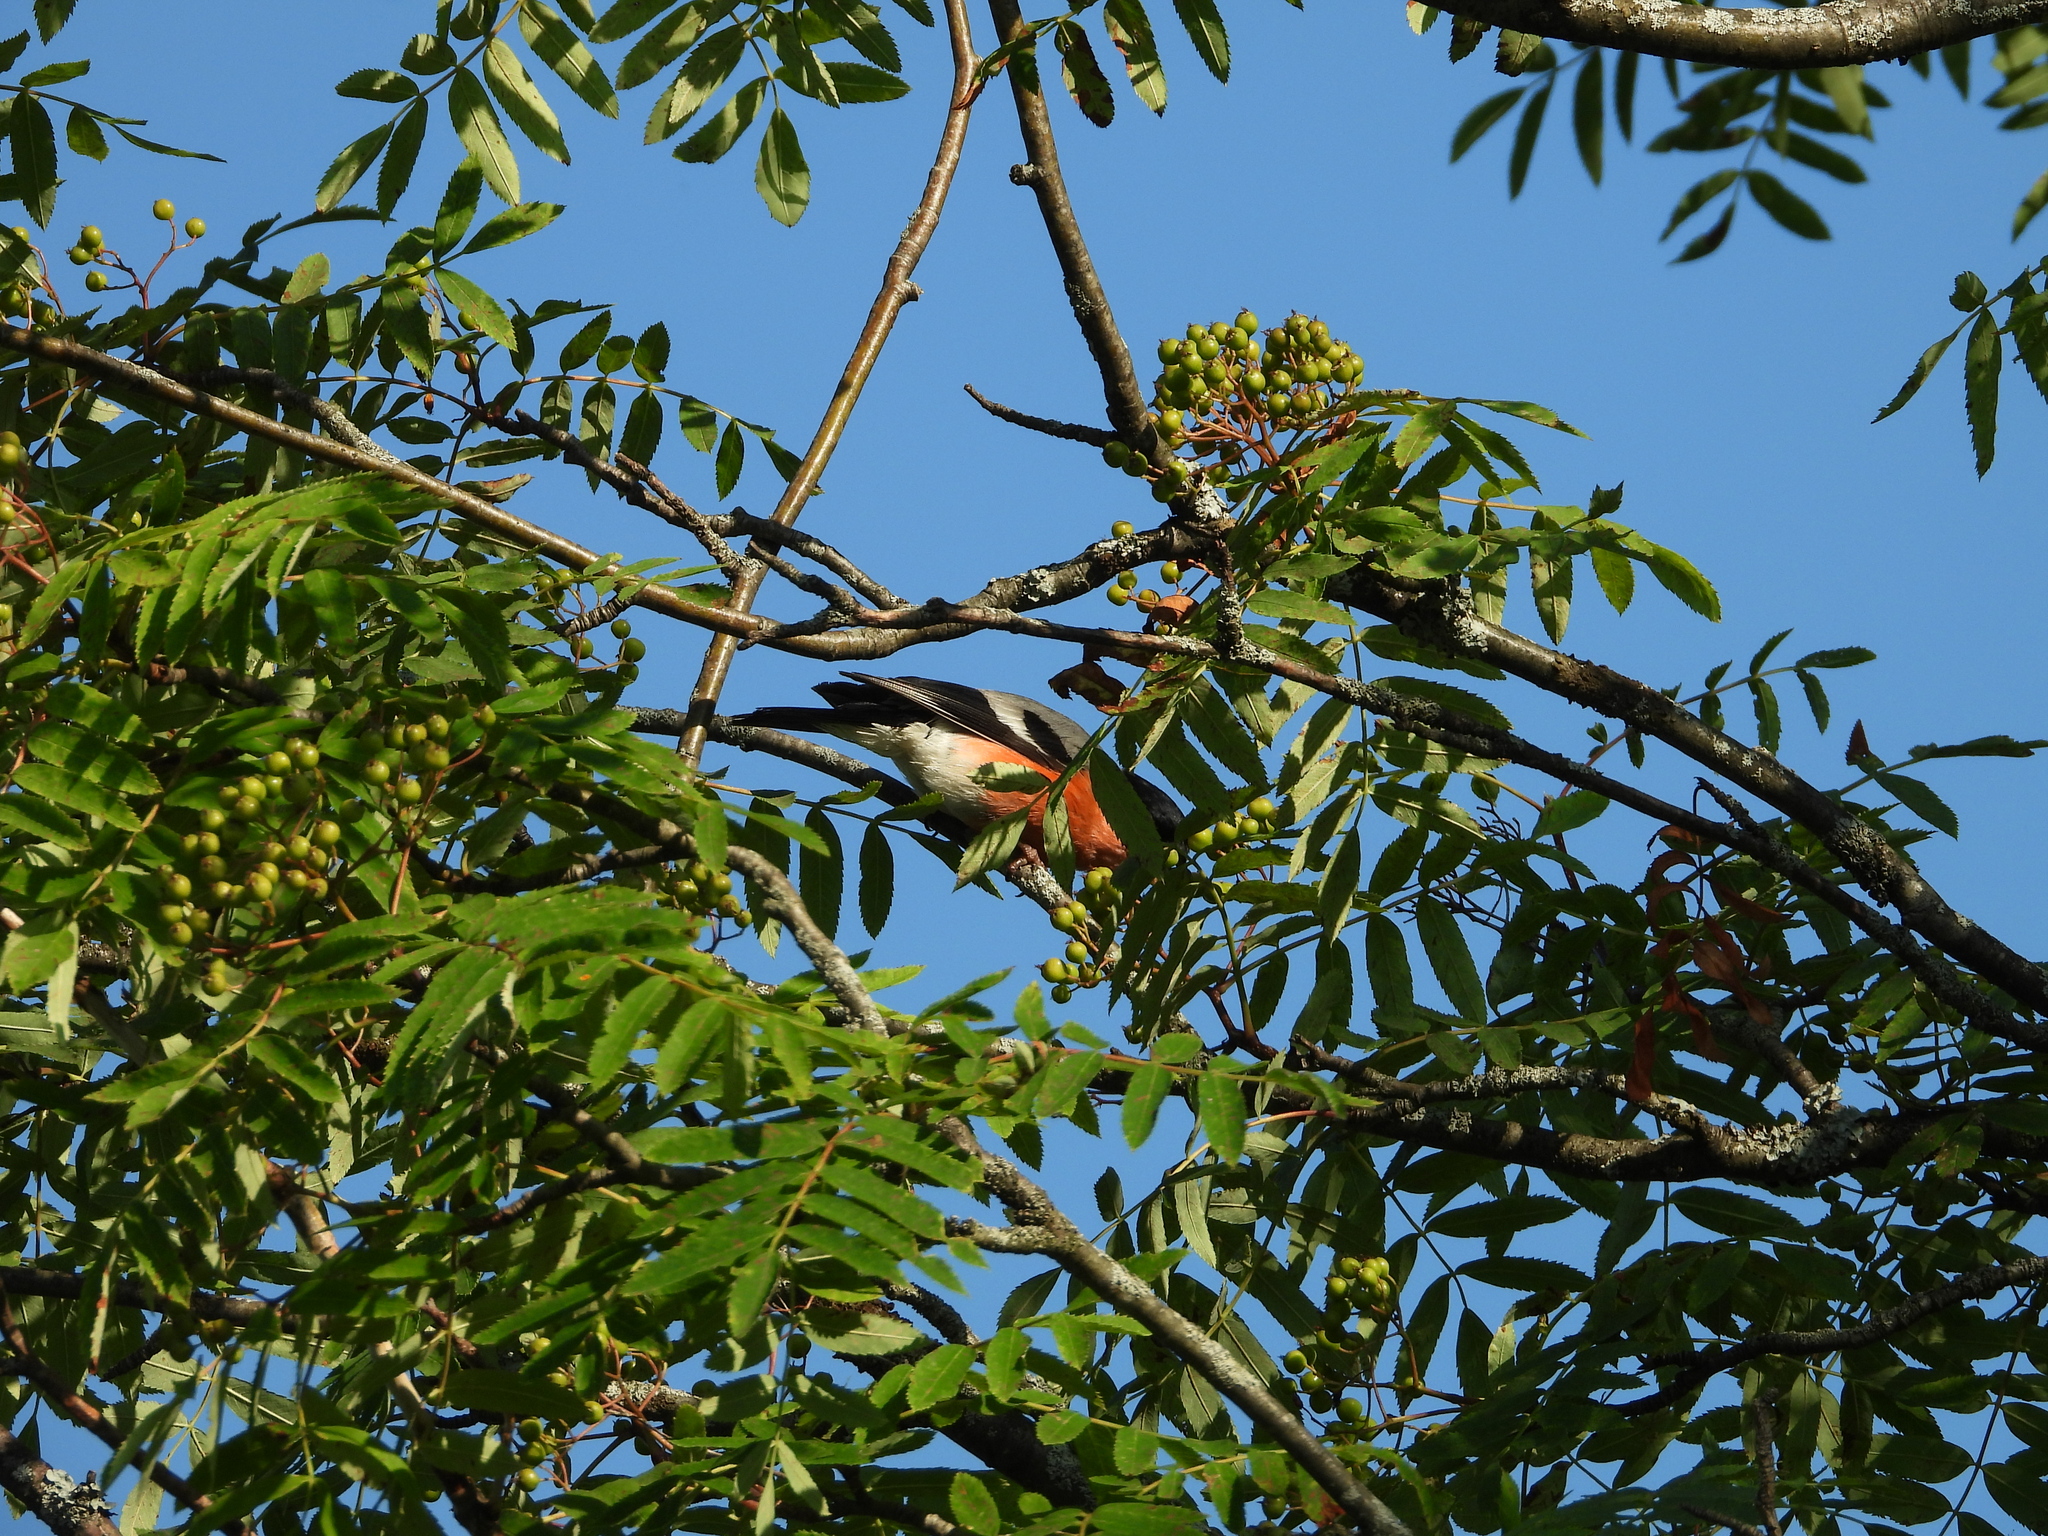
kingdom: Animalia
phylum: Chordata
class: Aves
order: Passeriformes
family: Fringillidae
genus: Pyrrhula
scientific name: Pyrrhula pyrrhula
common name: Eurasian bullfinch
